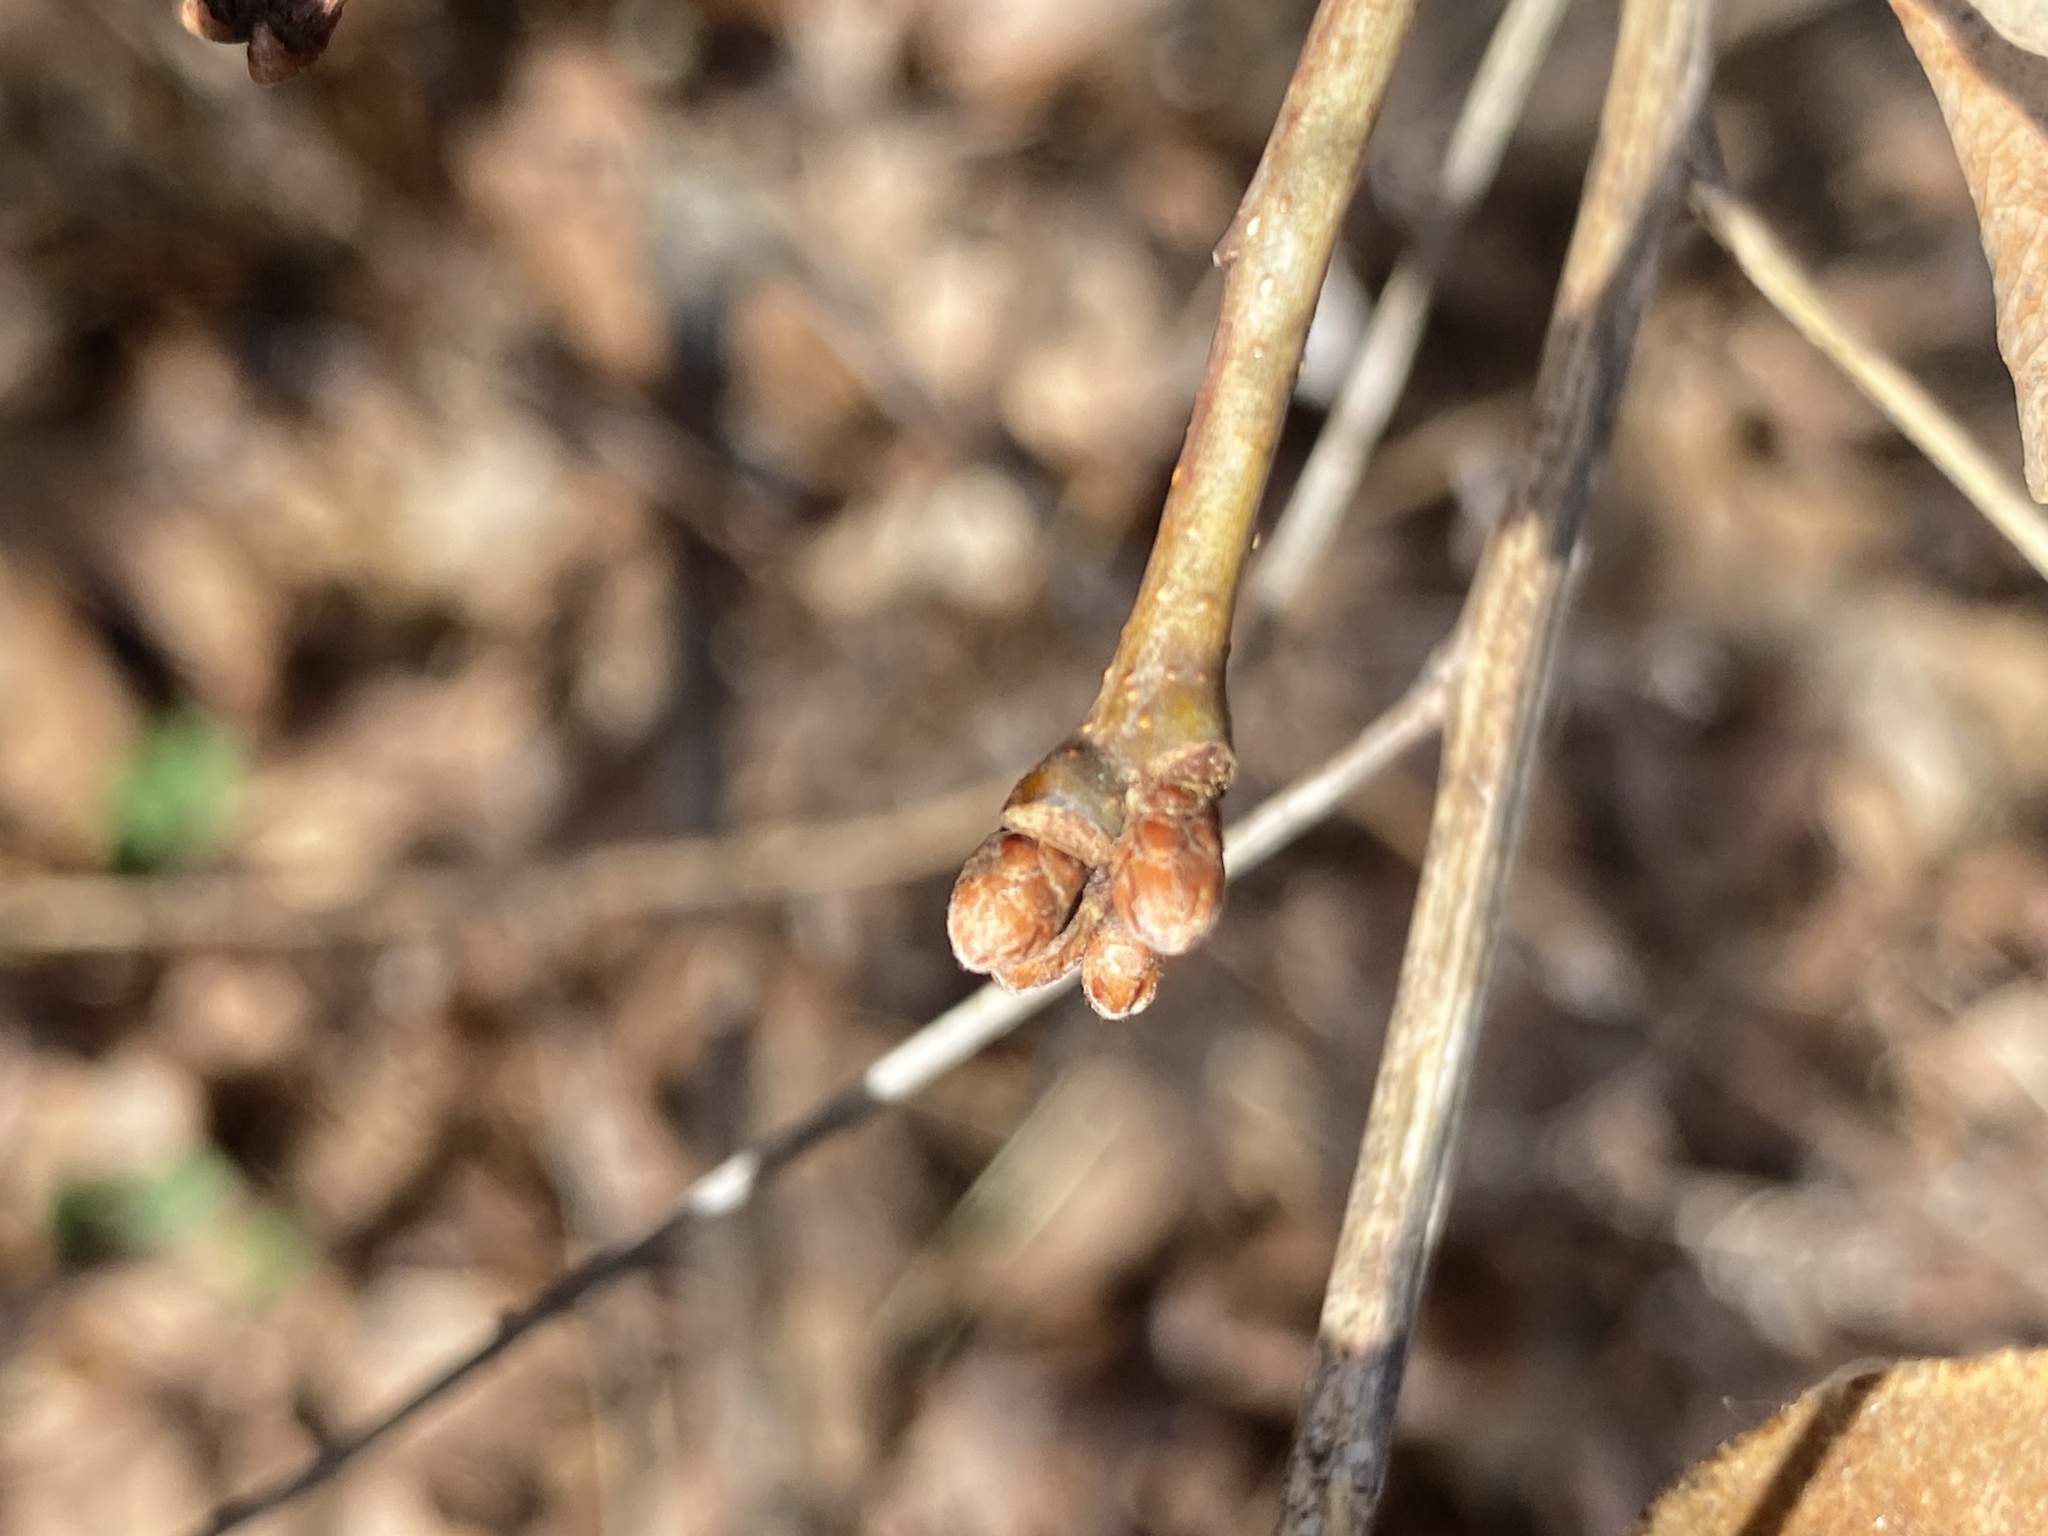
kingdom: Plantae
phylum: Tracheophyta
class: Magnoliopsida
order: Fagales
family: Fagaceae
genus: Quercus
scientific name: Quercus alba
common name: White oak
